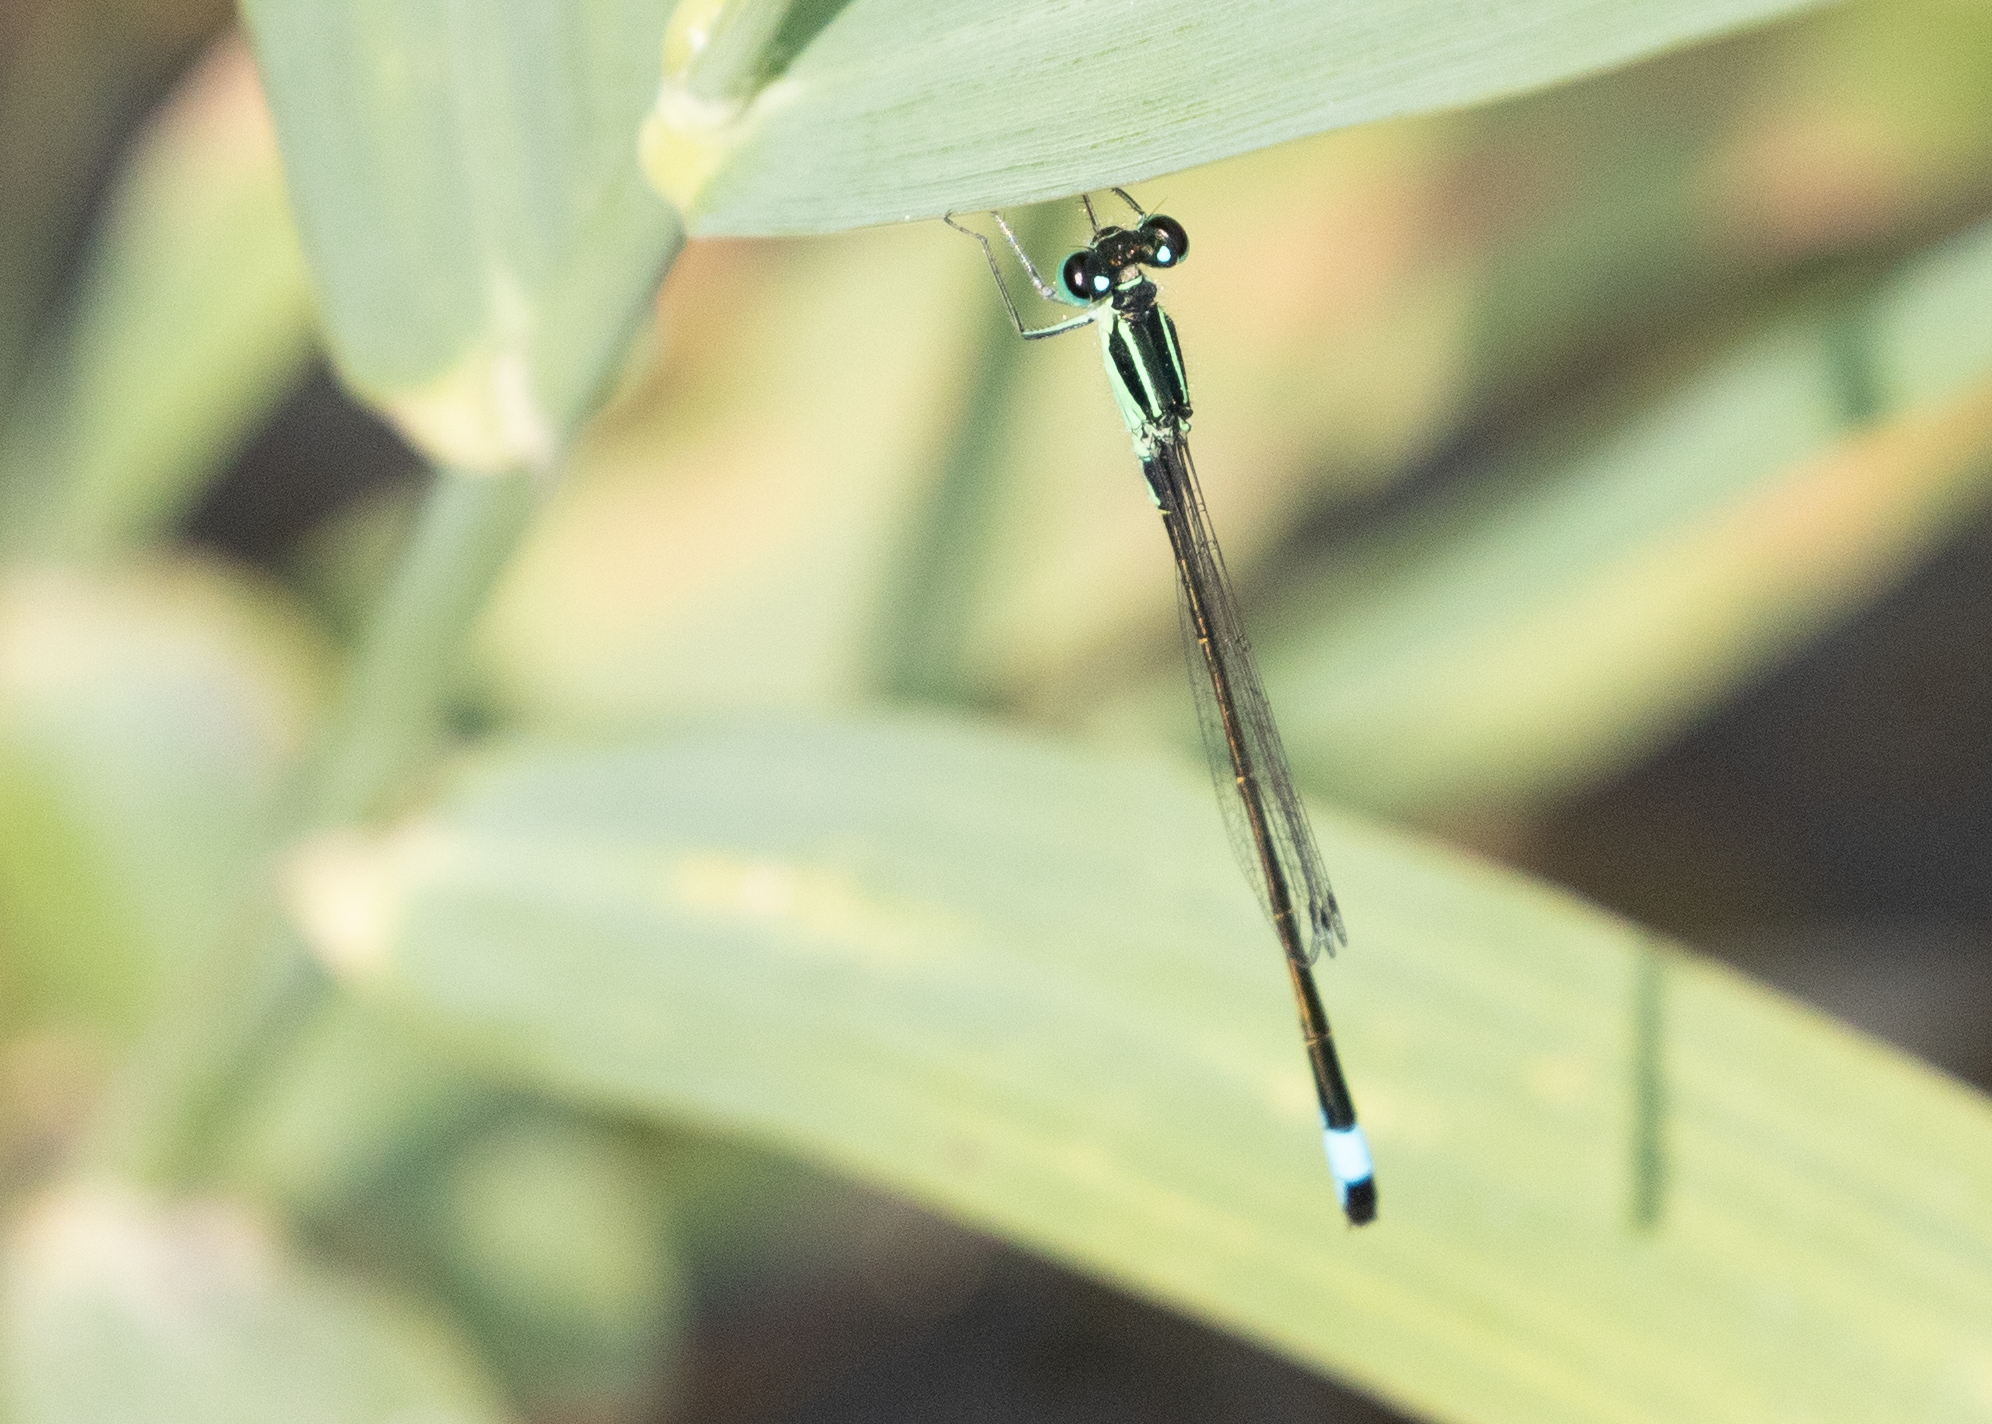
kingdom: Animalia
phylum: Arthropoda
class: Insecta
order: Odonata
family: Coenagrionidae
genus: Ischnura
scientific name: Ischnura elegans
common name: Blue-tailed damselfly
